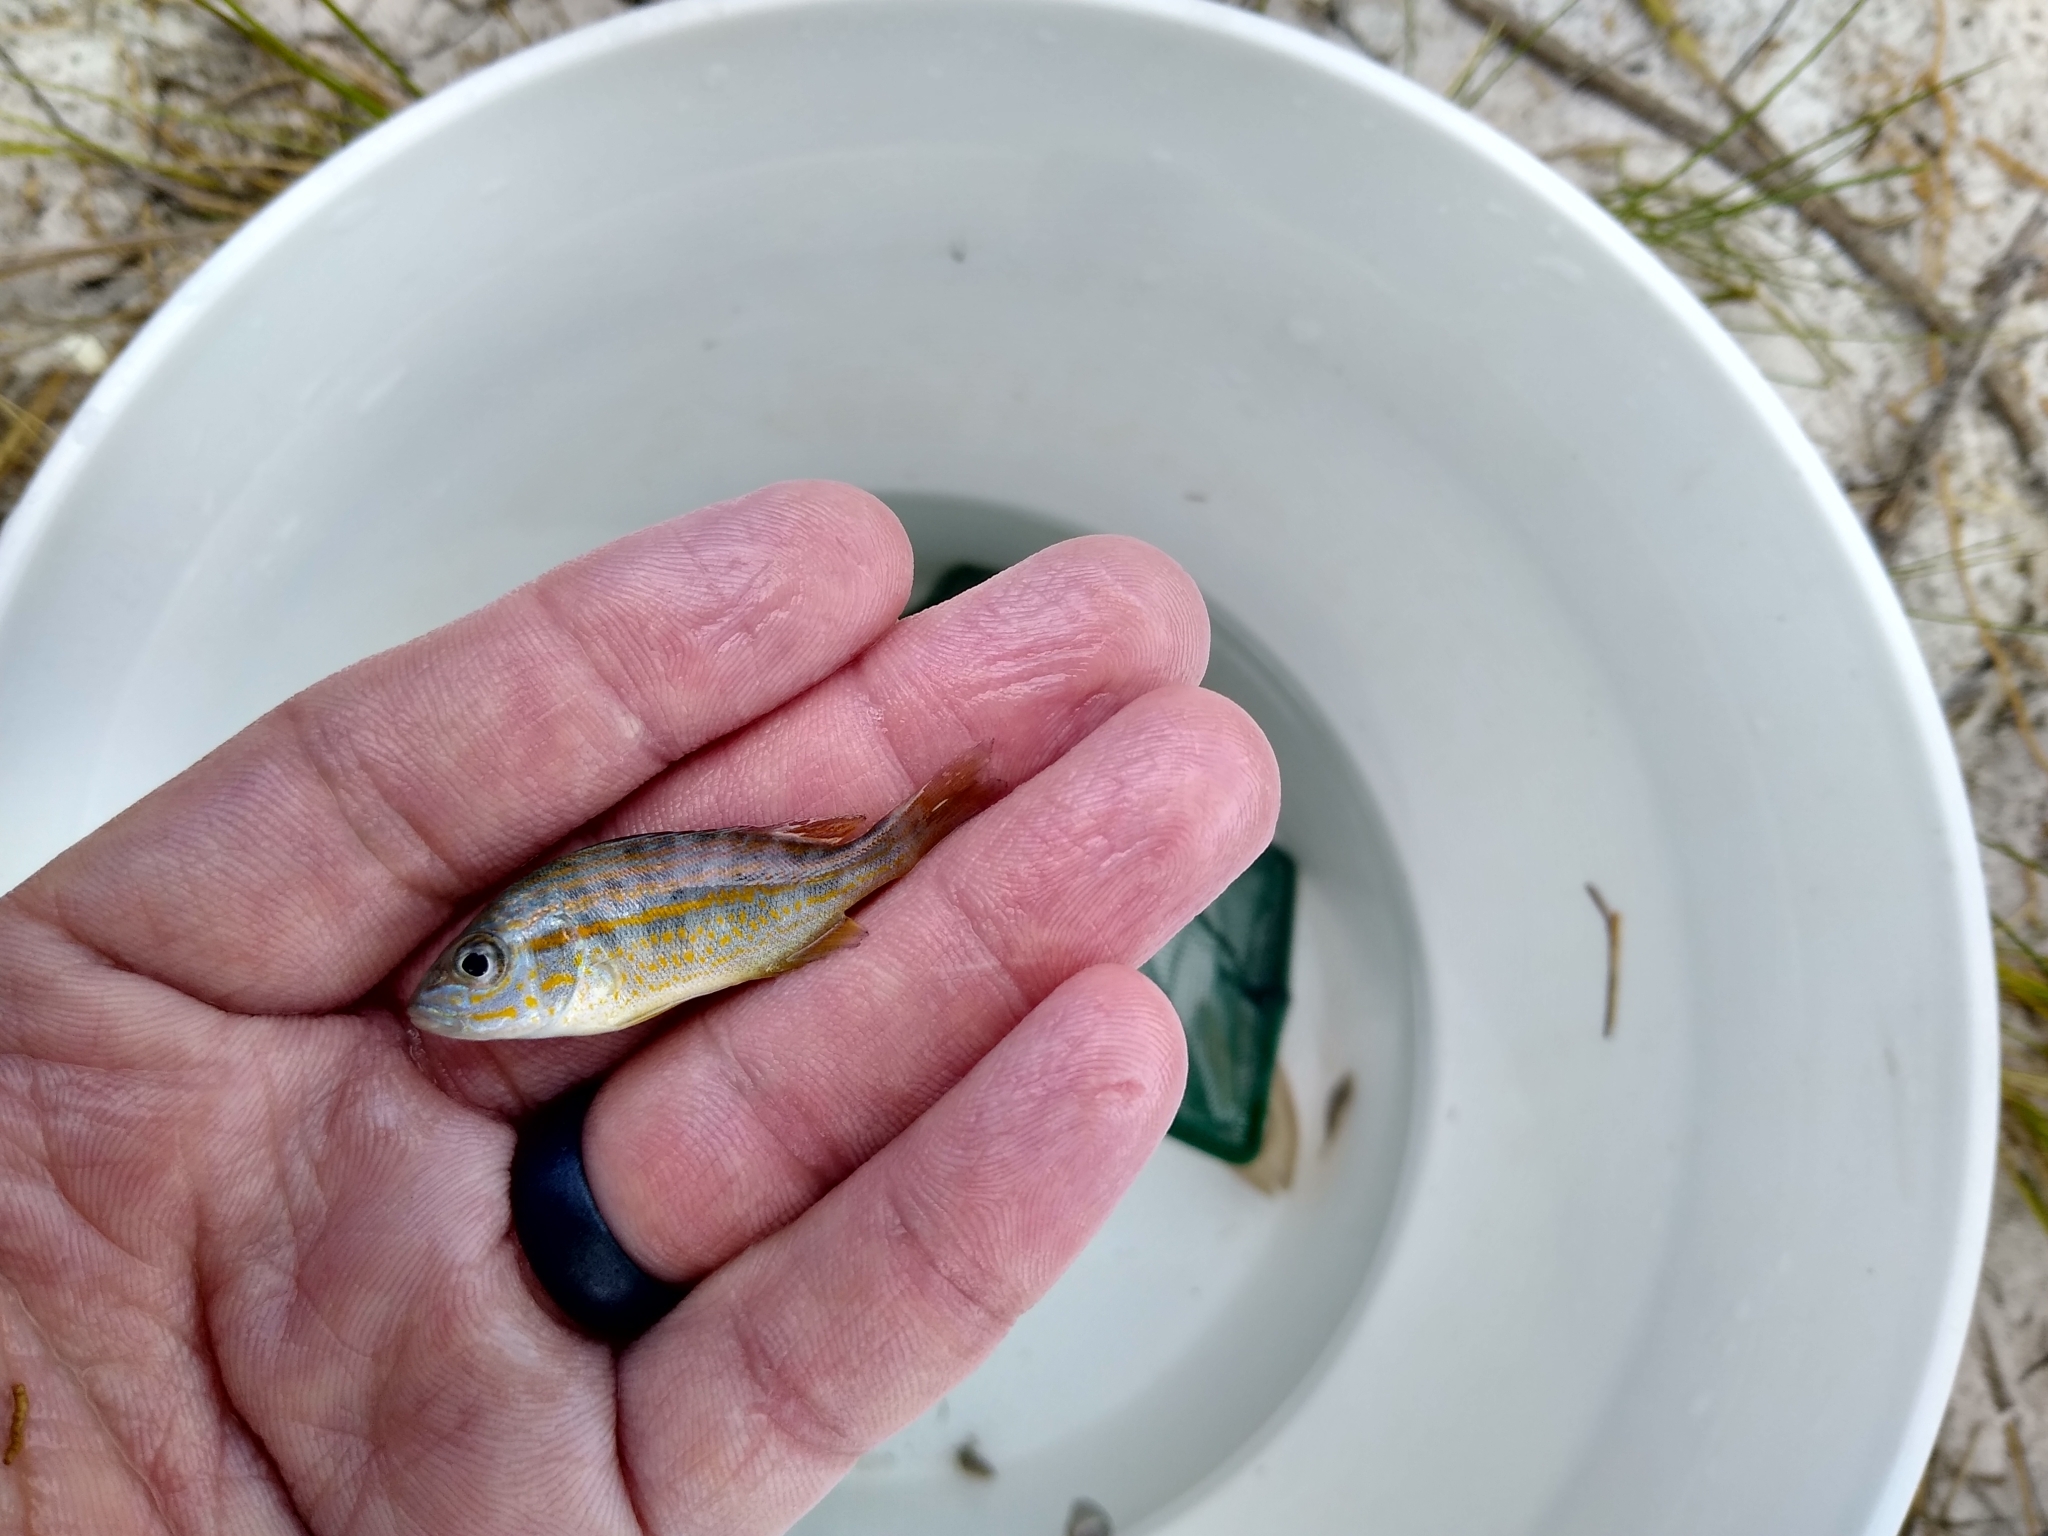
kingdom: Animalia
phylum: Chordata
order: Perciformes
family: Haemulidae
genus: Orthopristis
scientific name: Orthopristis chrysoptera
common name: Pigfish
